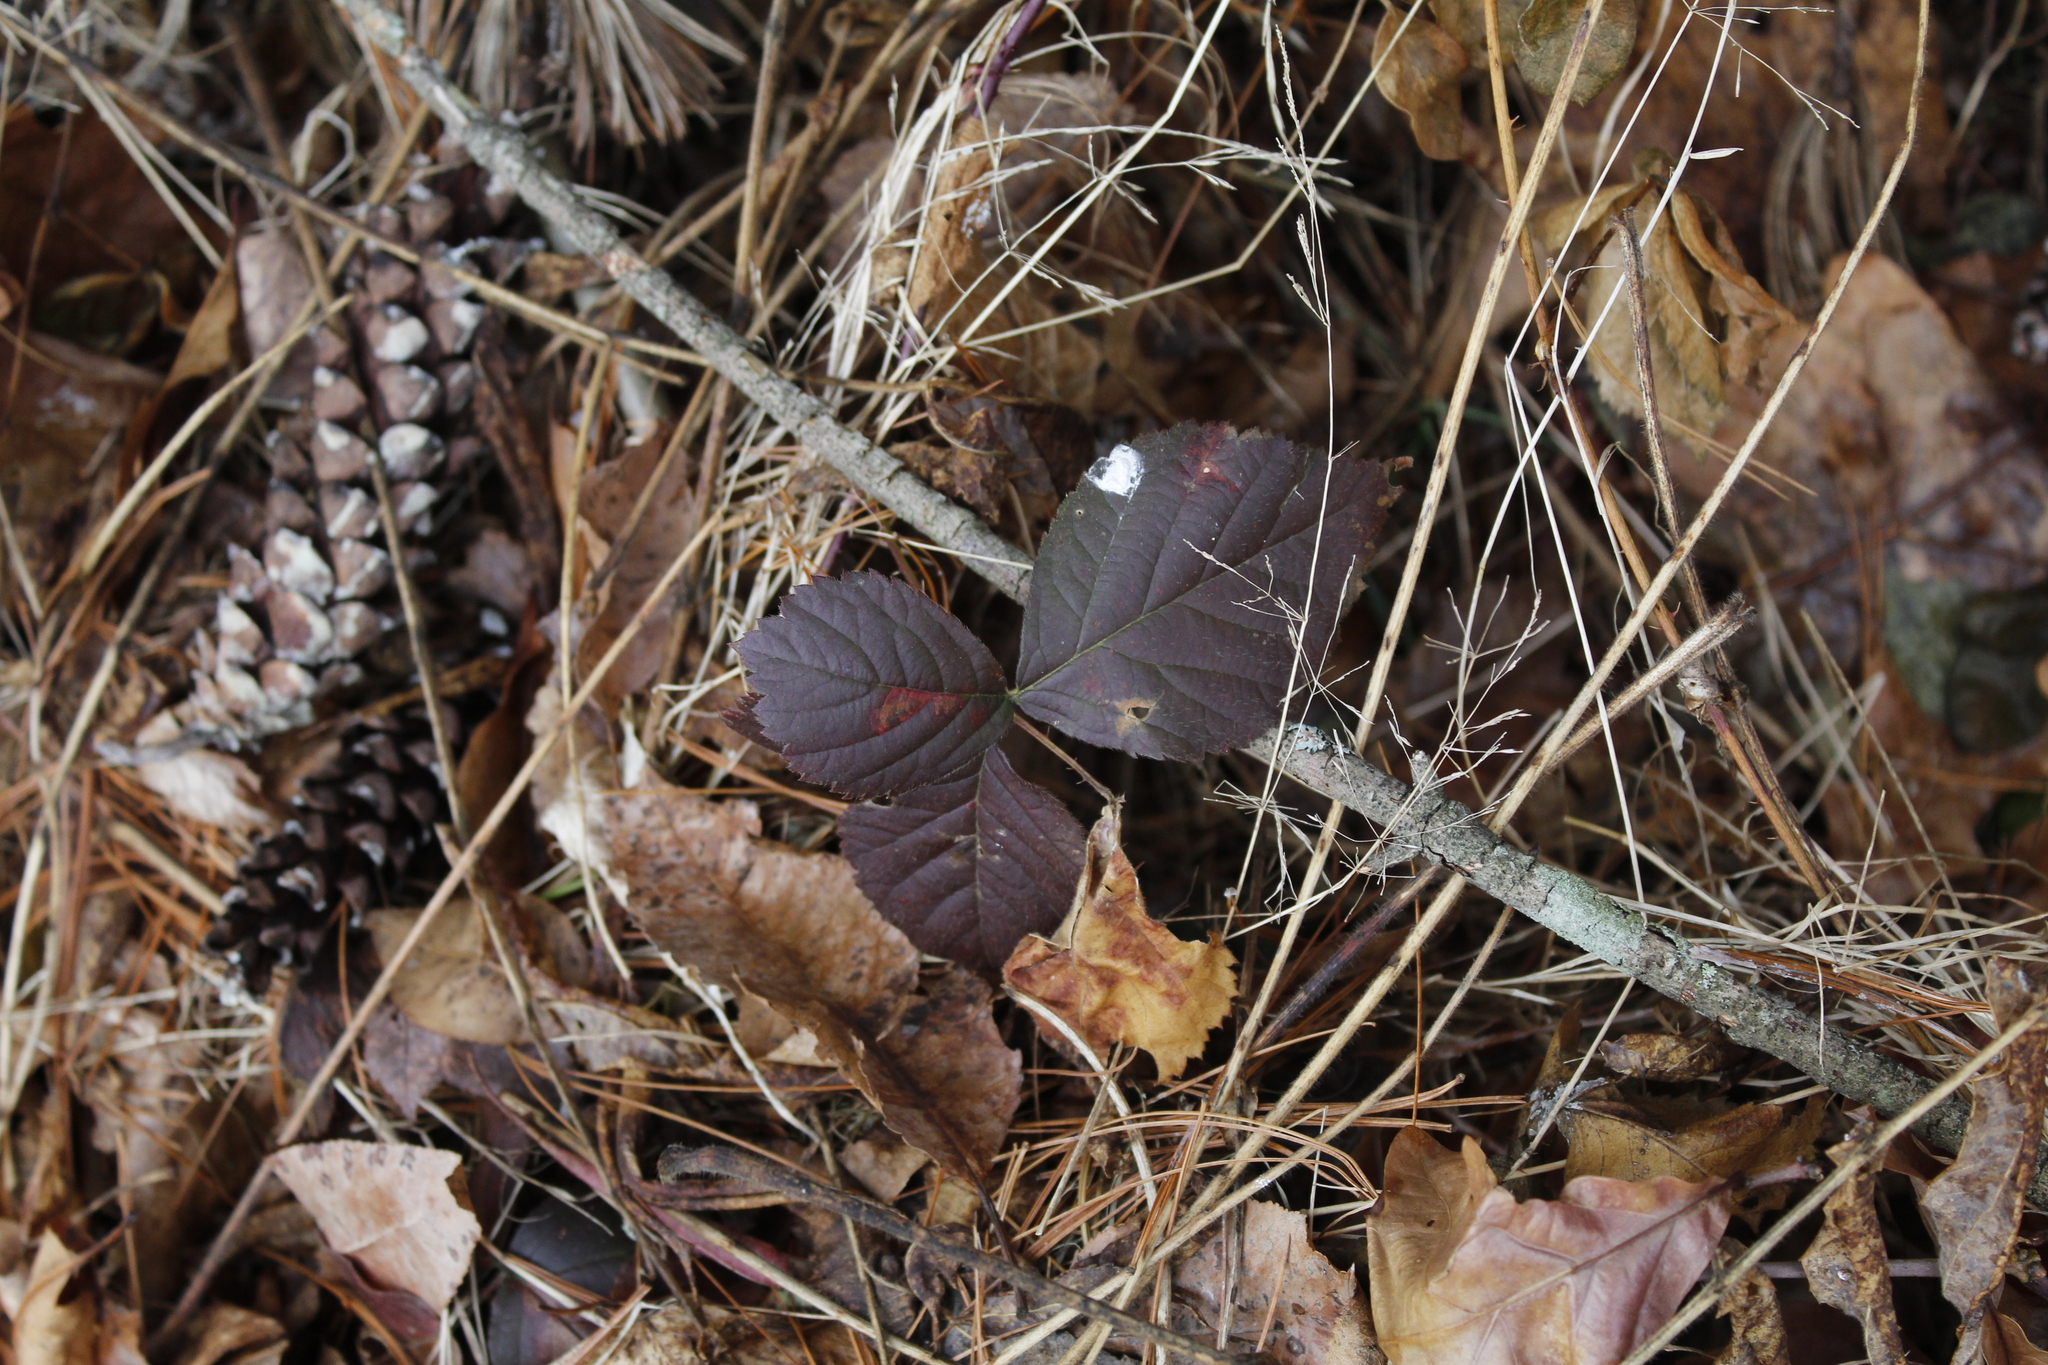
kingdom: Plantae
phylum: Tracheophyta
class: Magnoliopsida
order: Rosales
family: Rosaceae
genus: Rubus
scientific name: Rubus
